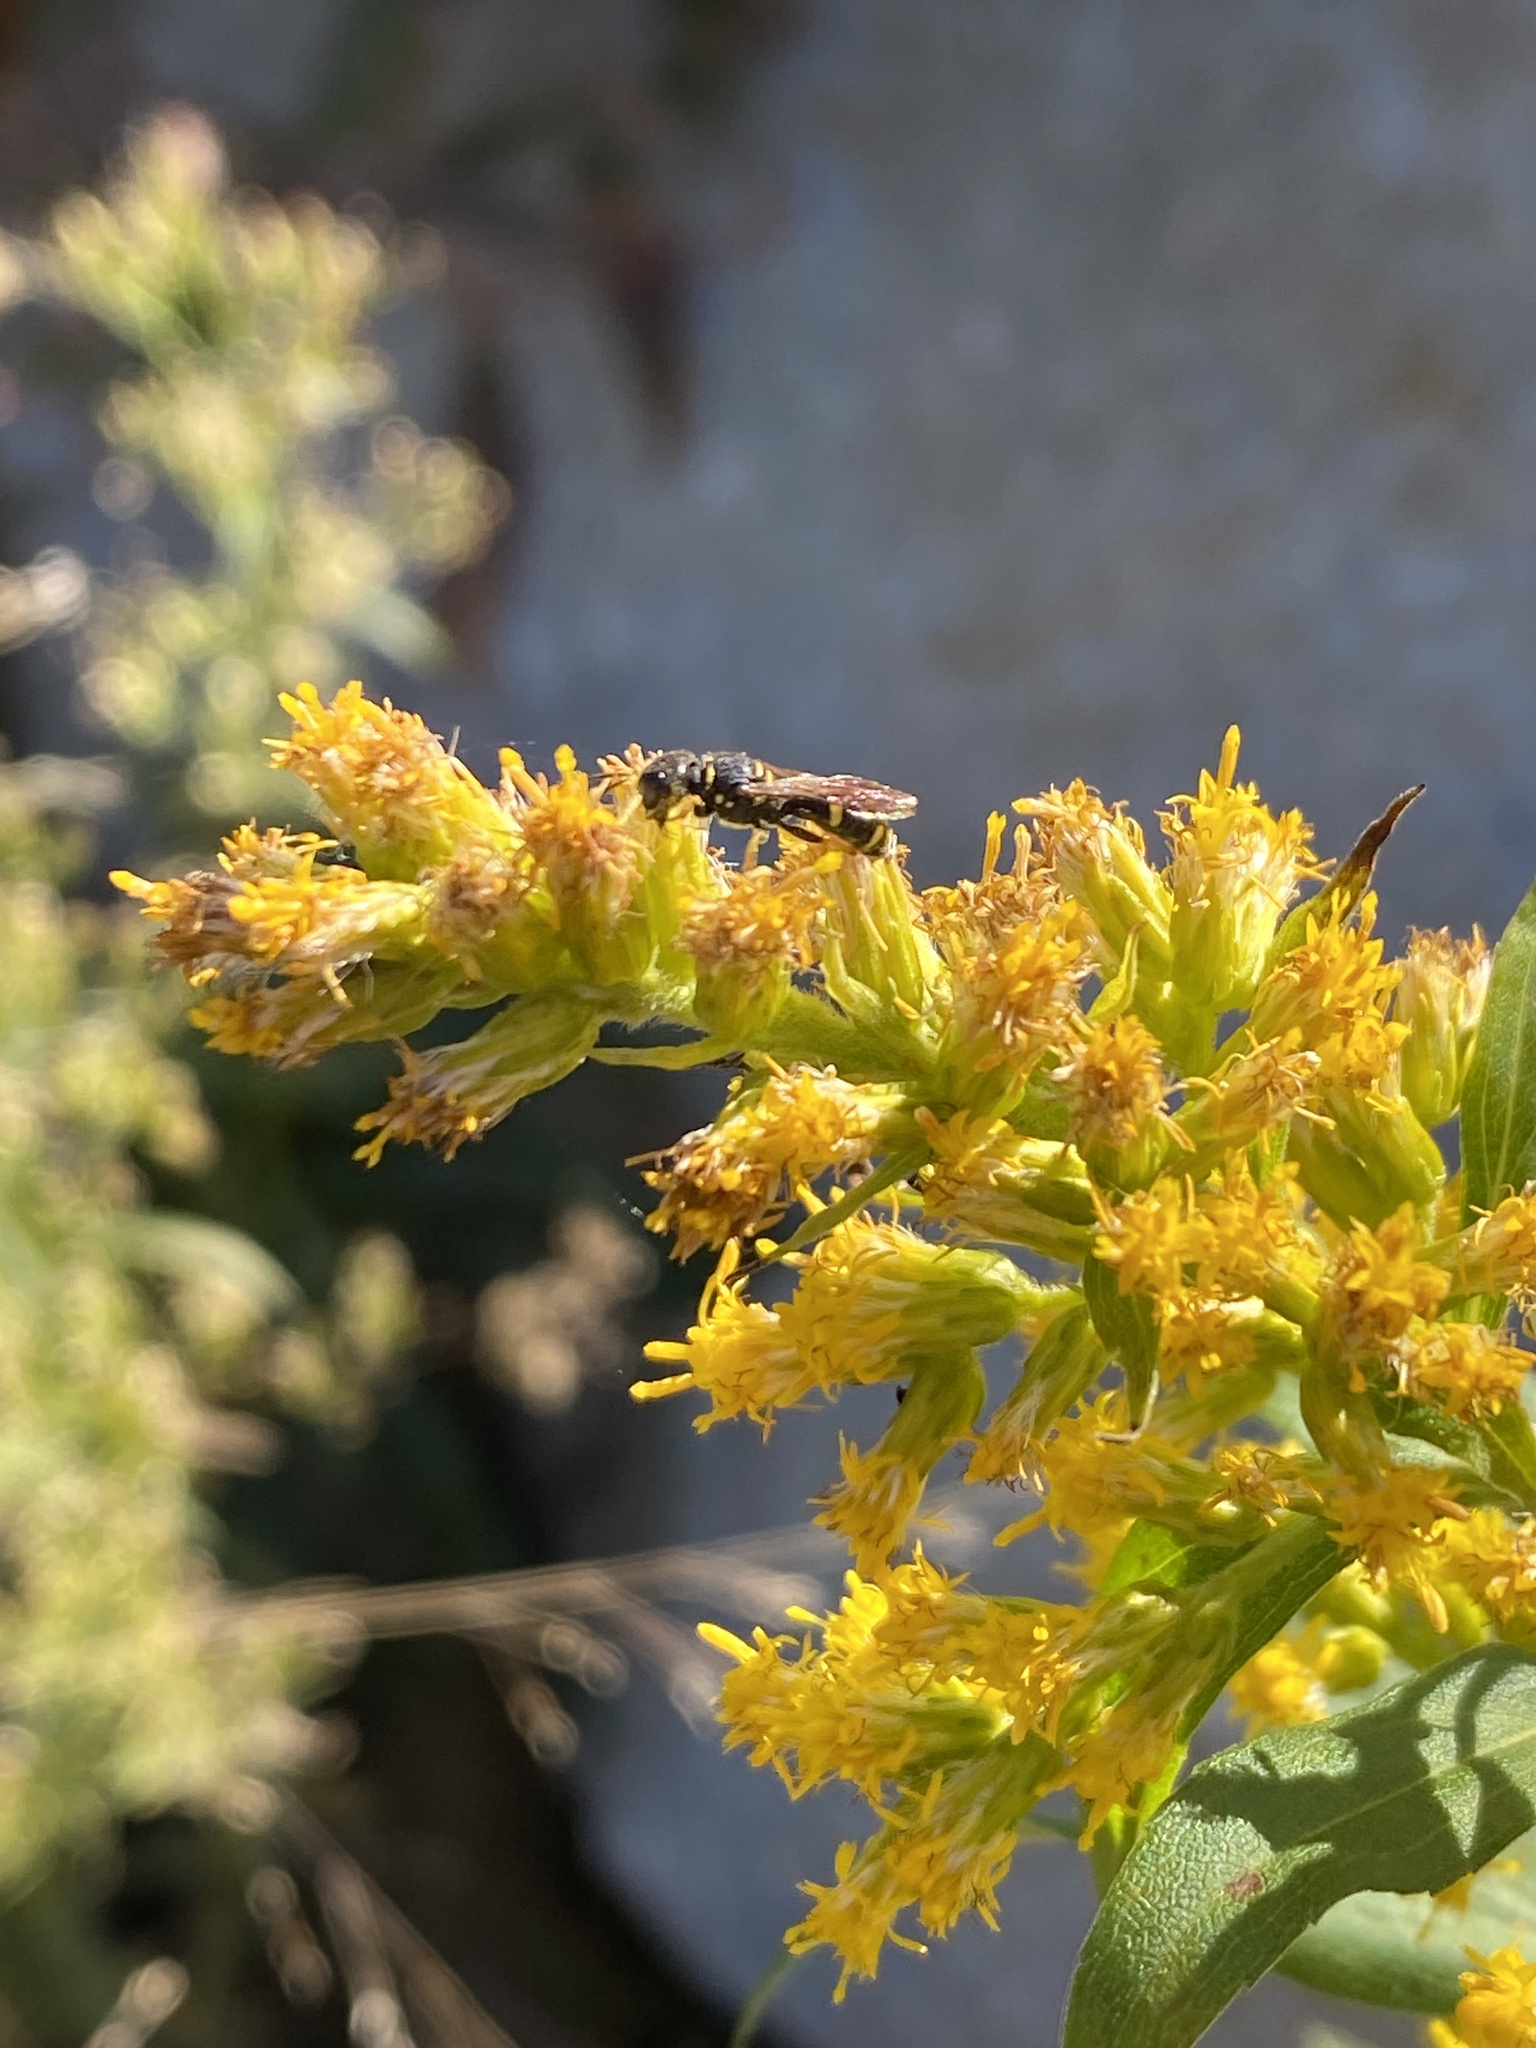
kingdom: Animalia
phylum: Arthropoda
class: Insecta
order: Hymenoptera
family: Crabronidae
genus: Ectemnius
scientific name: Ectemnius stirpicola
